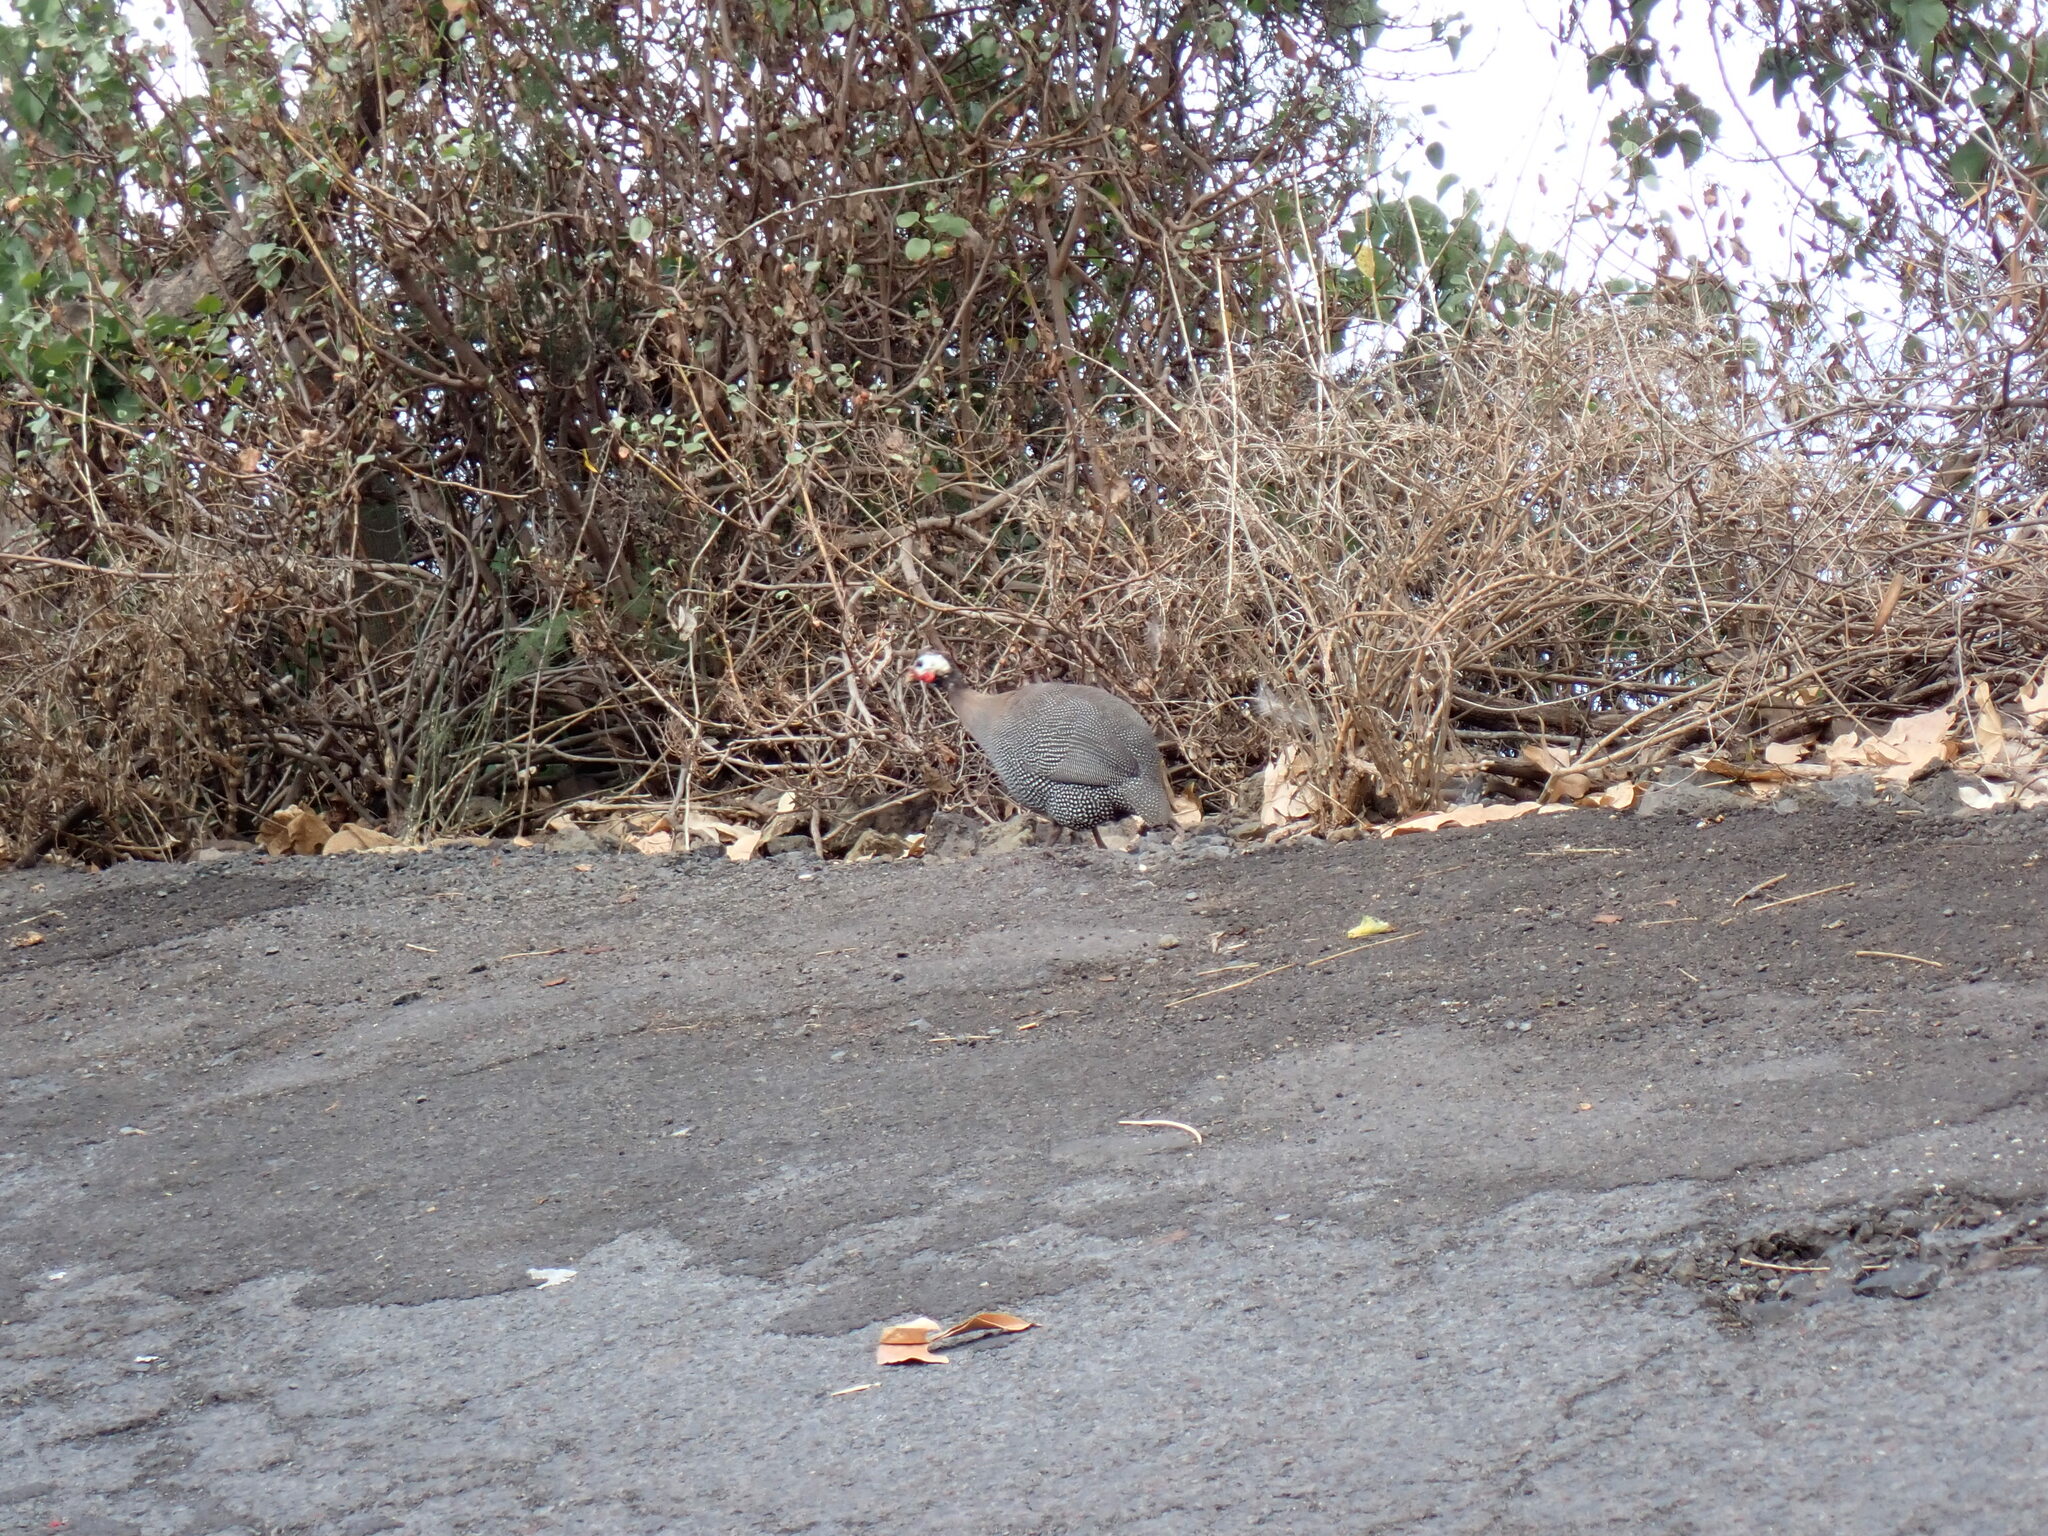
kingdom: Animalia
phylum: Chordata
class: Aves
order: Galliformes
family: Numididae
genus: Numida
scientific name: Numida meleagris
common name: Helmeted guineafowl
